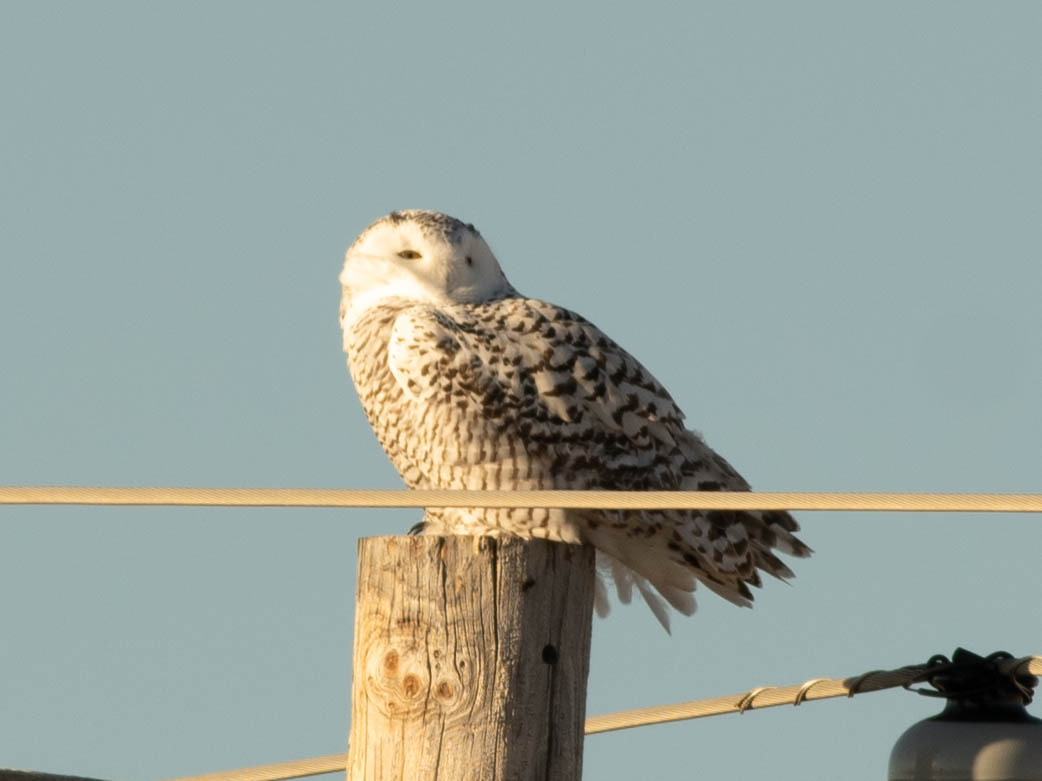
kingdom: Animalia
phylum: Chordata
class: Aves
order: Strigiformes
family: Strigidae
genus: Bubo
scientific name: Bubo scandiacus
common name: Snowy owl
